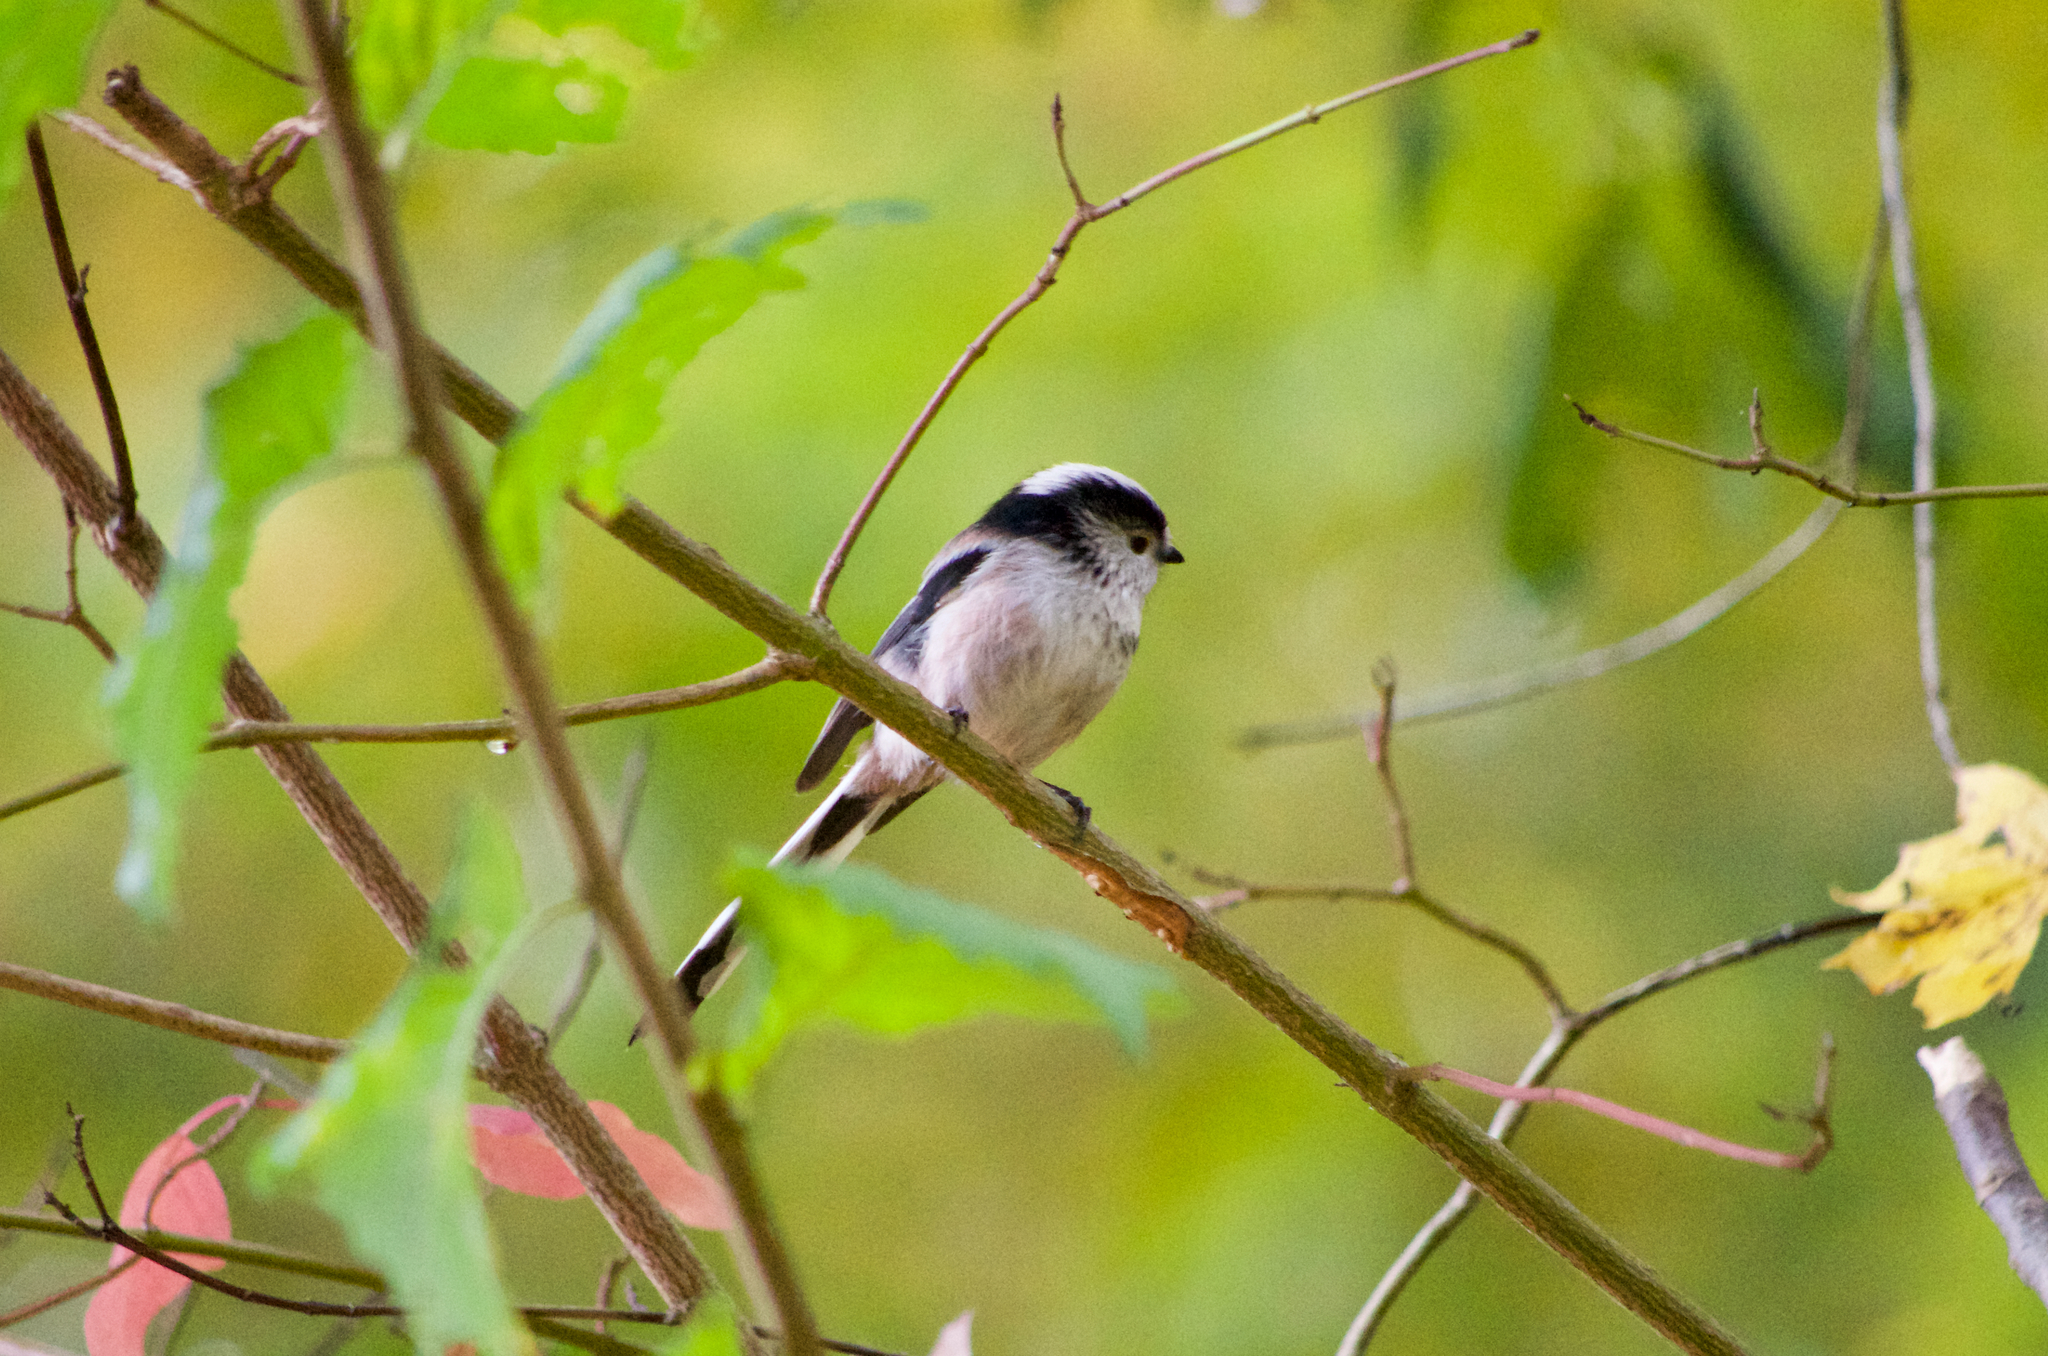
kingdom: Animalia
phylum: Chordata
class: Aves
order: Passeriformes
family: Aegithalidae
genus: Aegithalos
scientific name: Aegithalos caudatus
